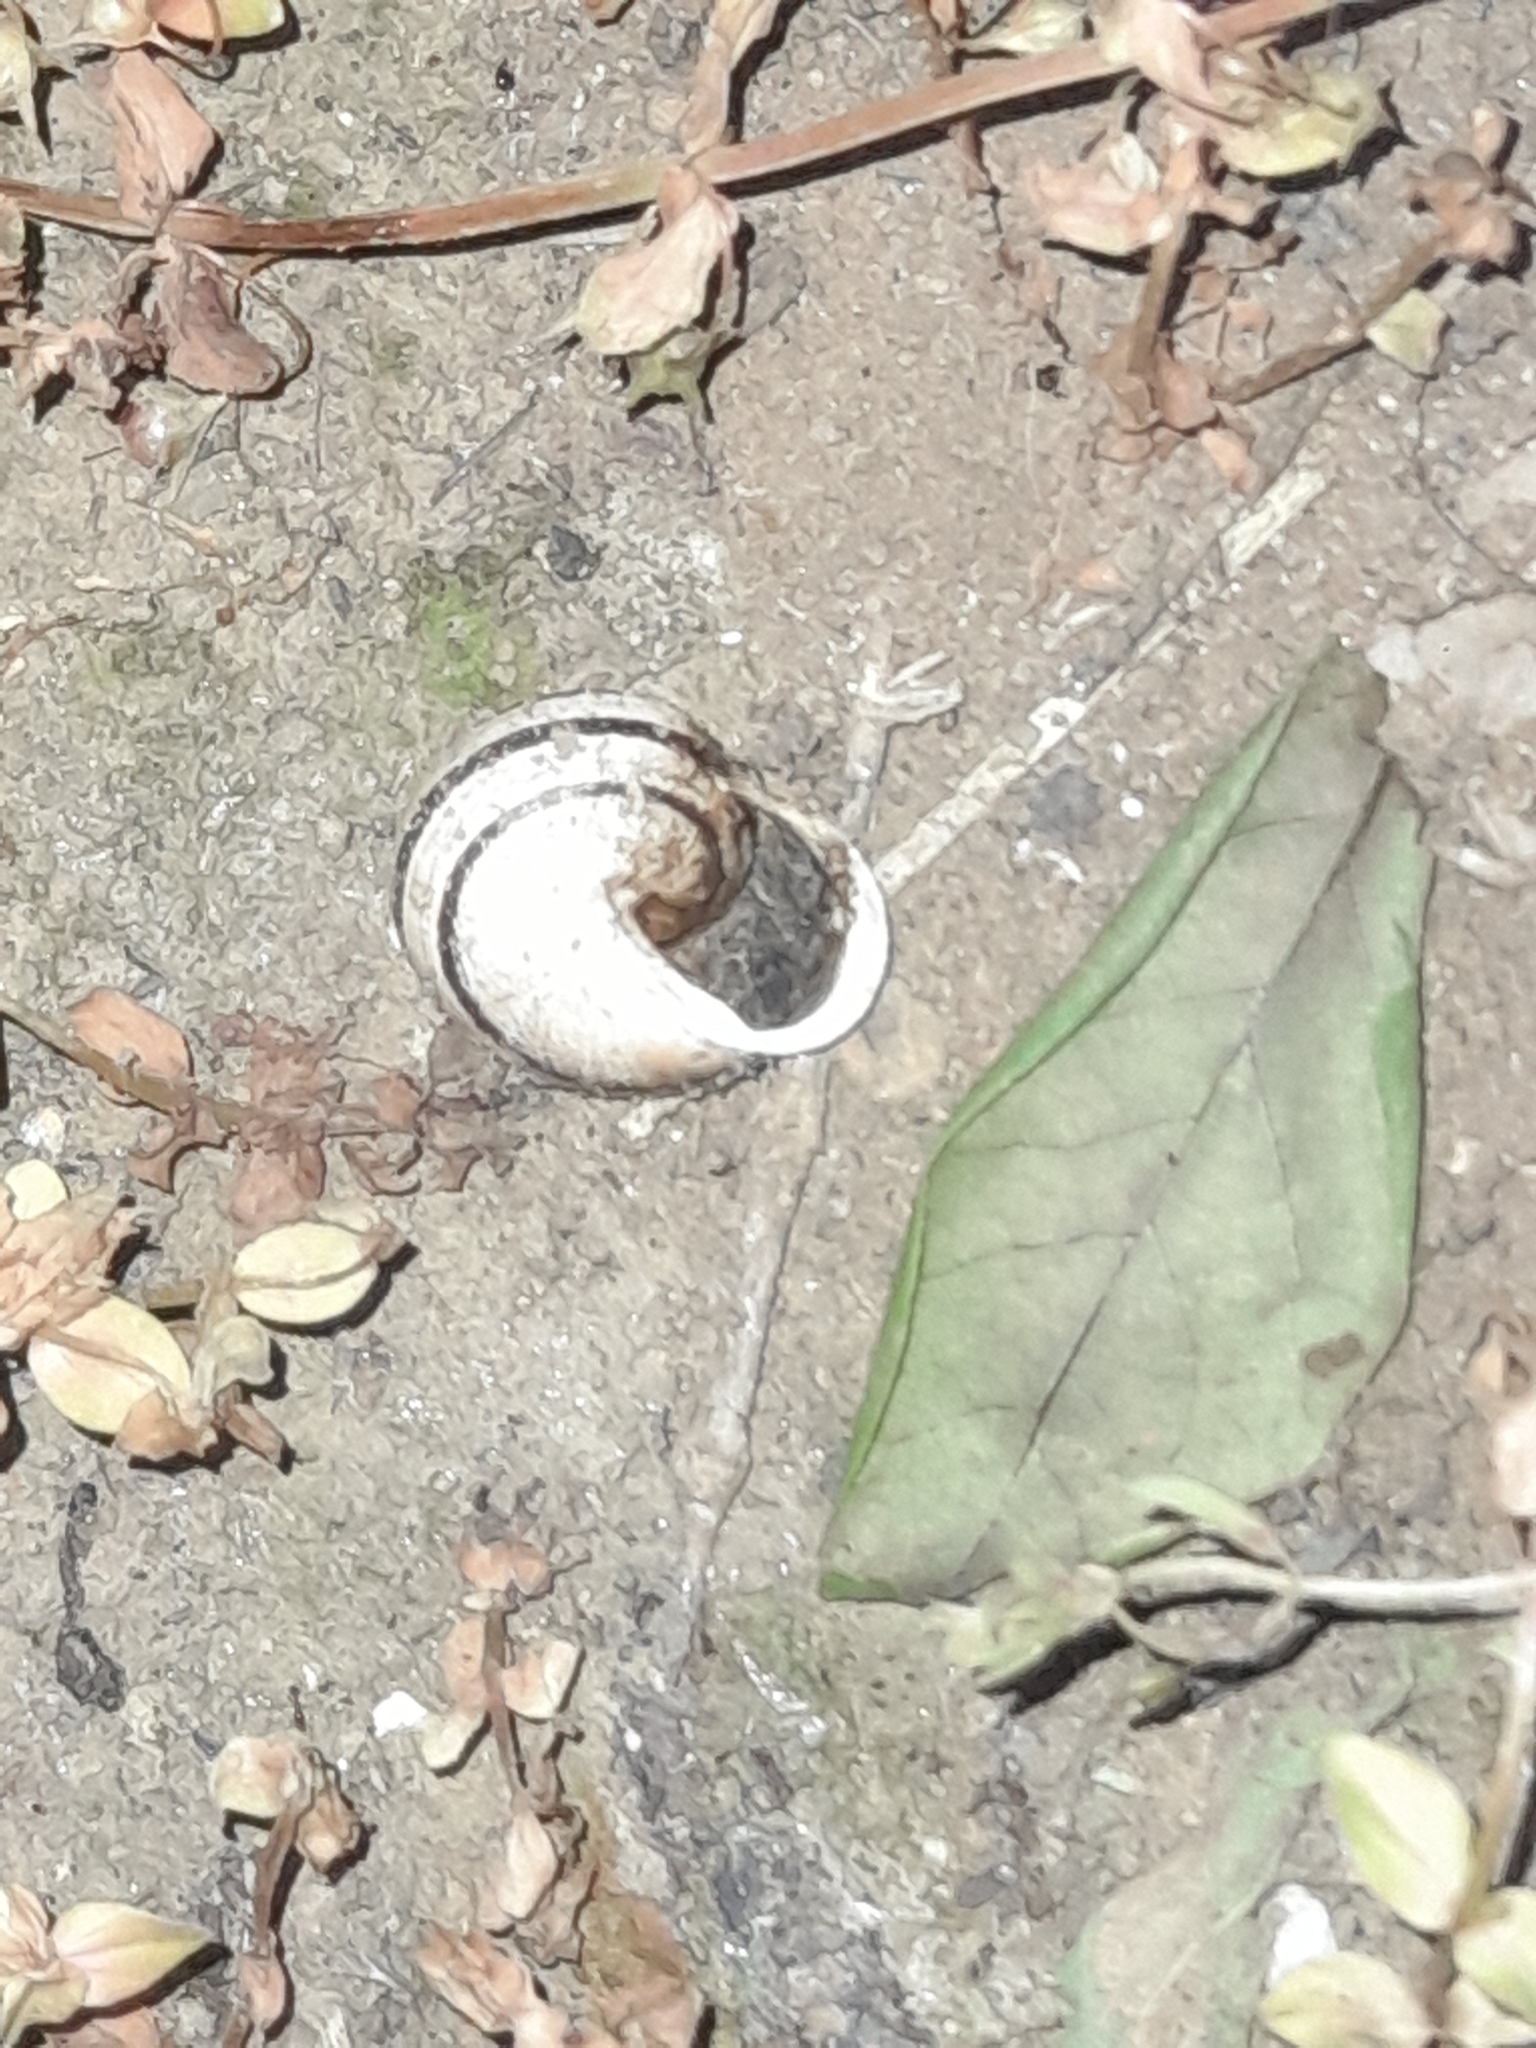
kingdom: Animalia
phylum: Mollusca
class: Gastropoda
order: Stylommatophora
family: Helicidae
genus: Eobania
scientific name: Eobania vermiculata
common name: Chocolateband snail
